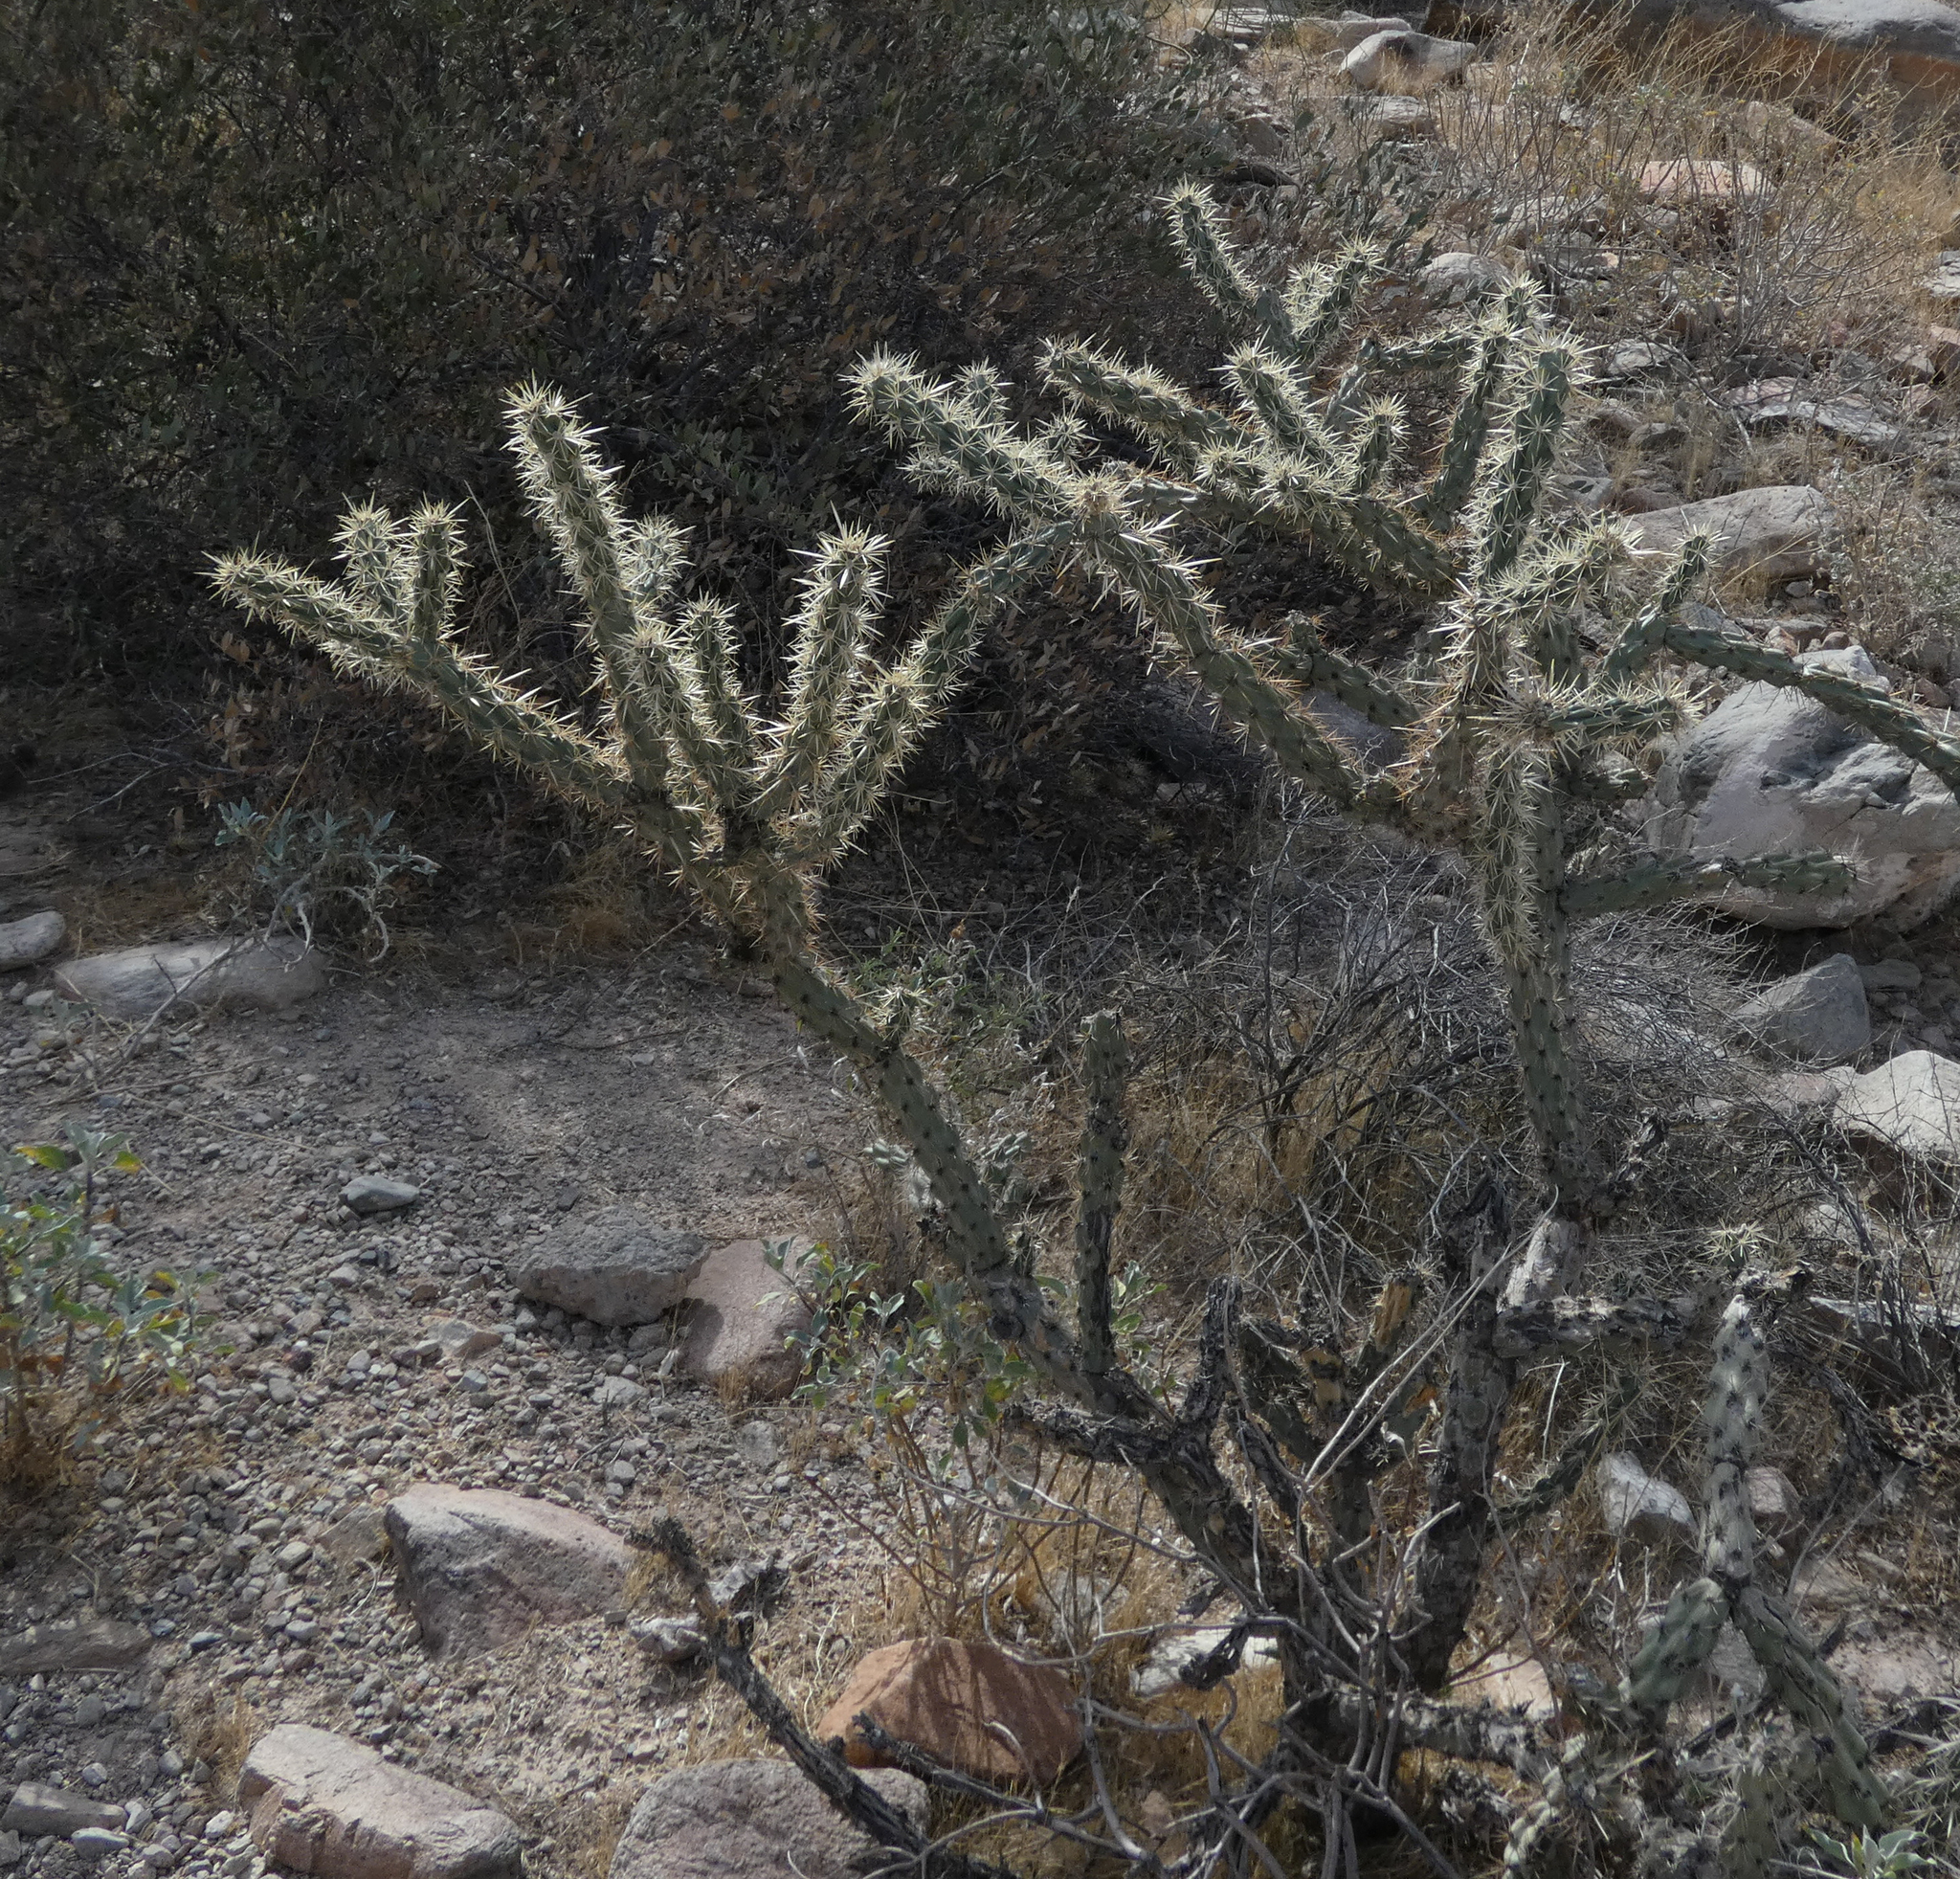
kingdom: Plantae
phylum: Tracheophyta
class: Magnoliopsida
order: Caryophyllales
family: Cactaceae
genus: Cylindropuntia
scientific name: Cylindropuntia acanthocarpa
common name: Buckhorn cholla
